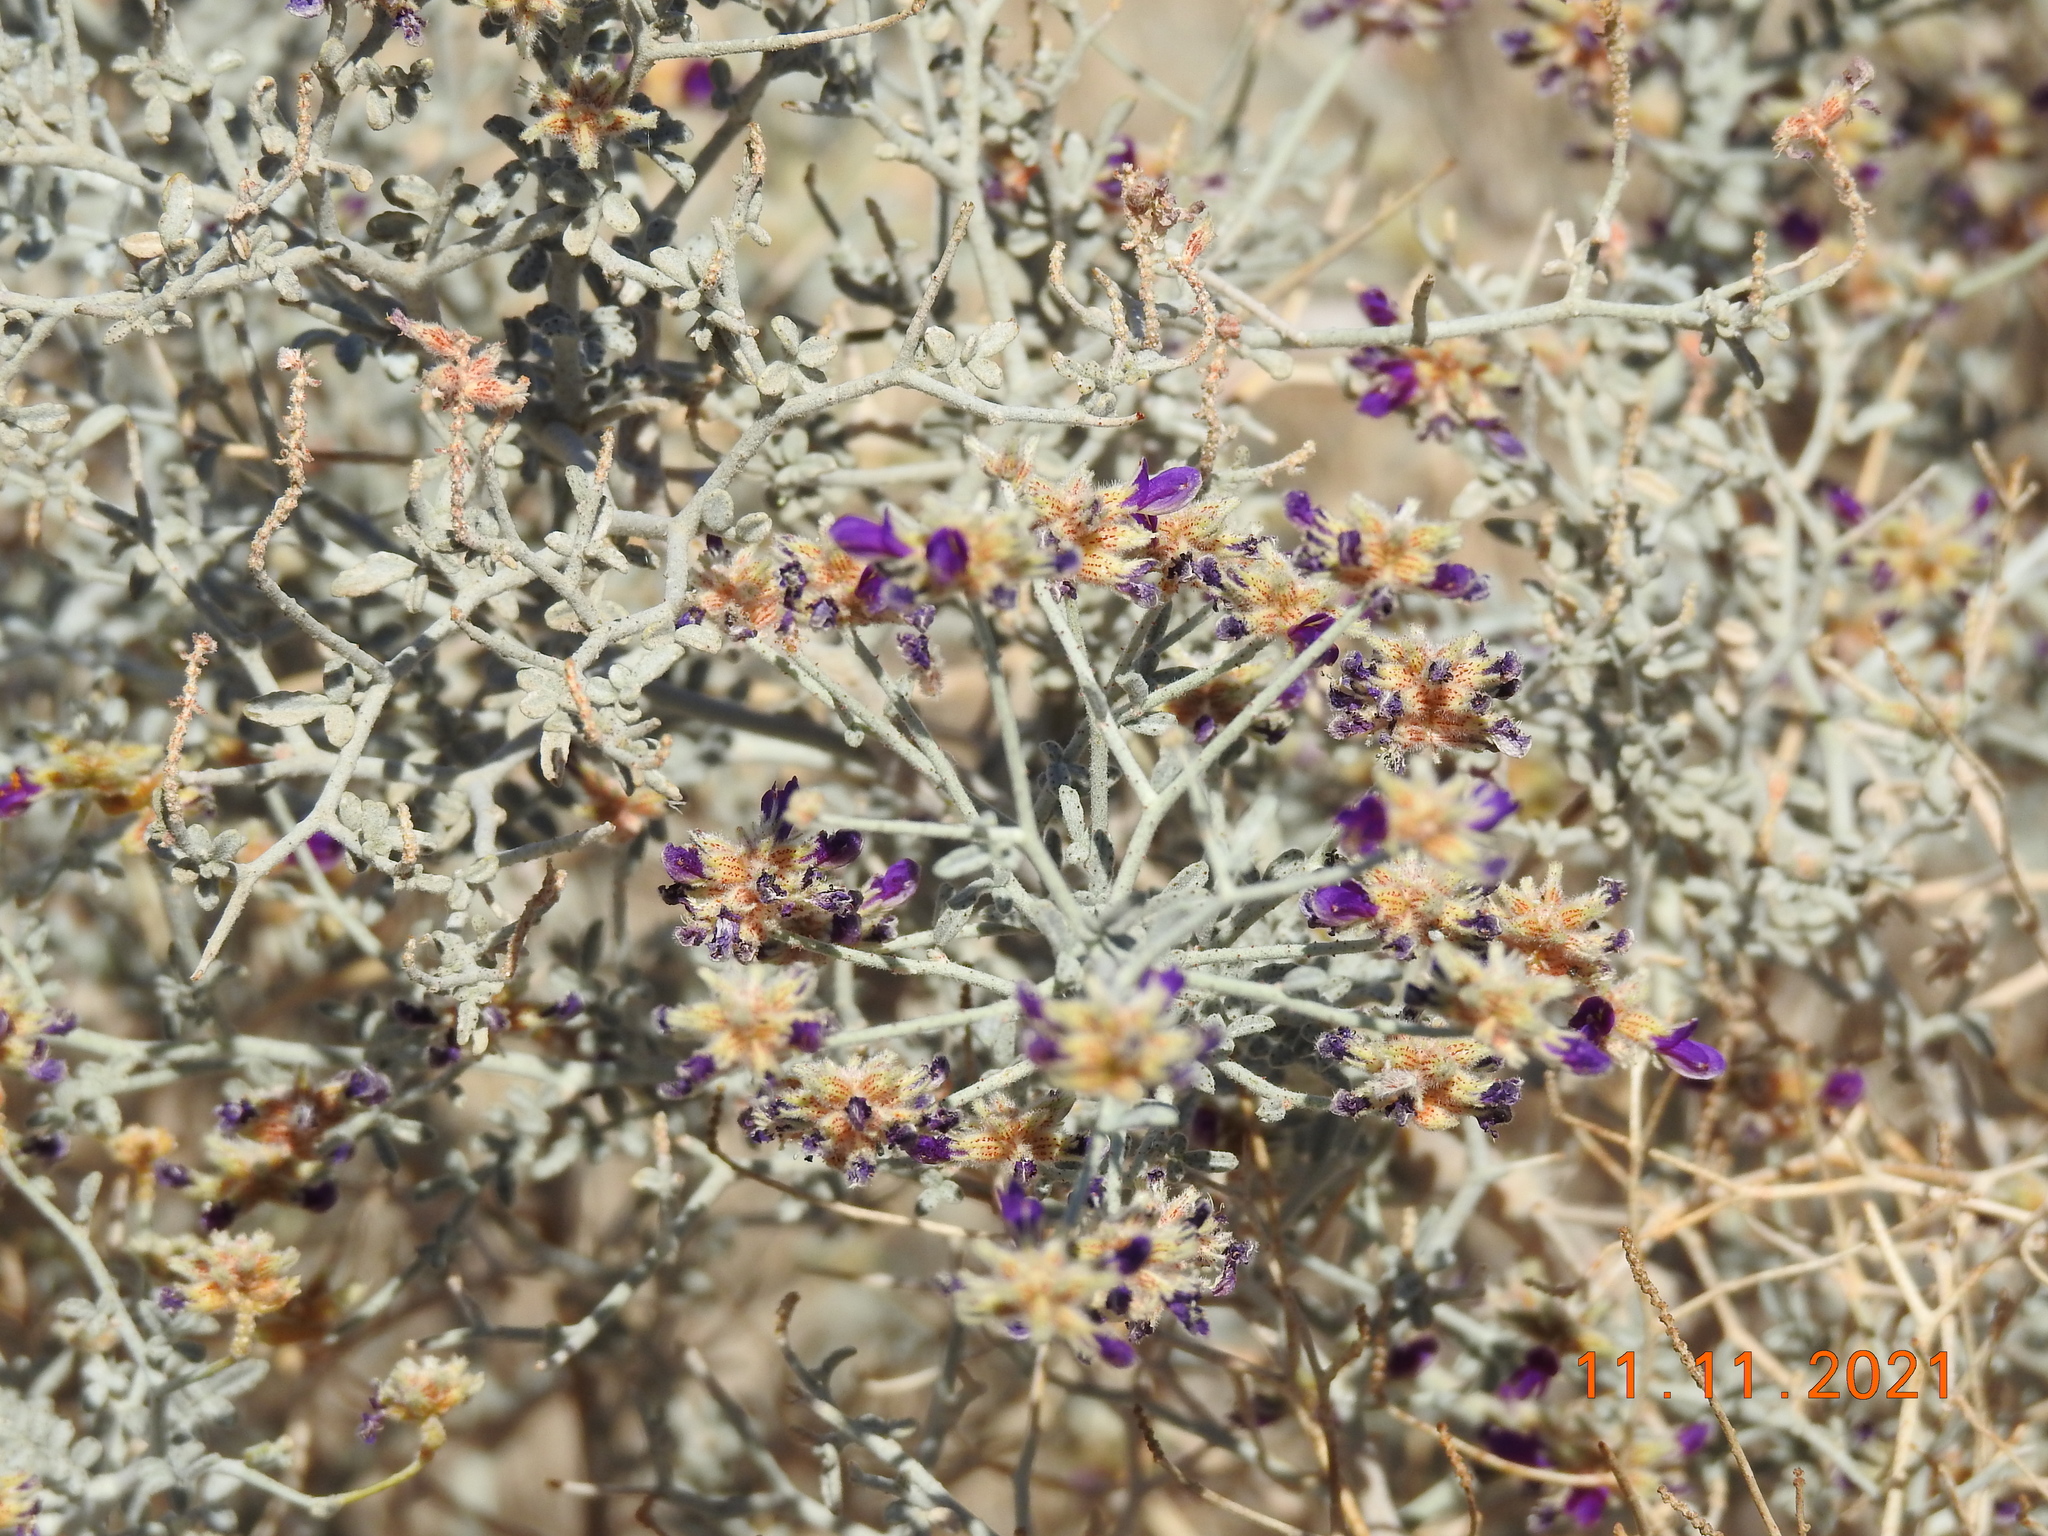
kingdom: Plantae
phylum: Tracheophyta
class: Magnoliopsida
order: Fabales
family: Fabaceae
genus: Psorothamnus
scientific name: Psorothamnus emoryi
